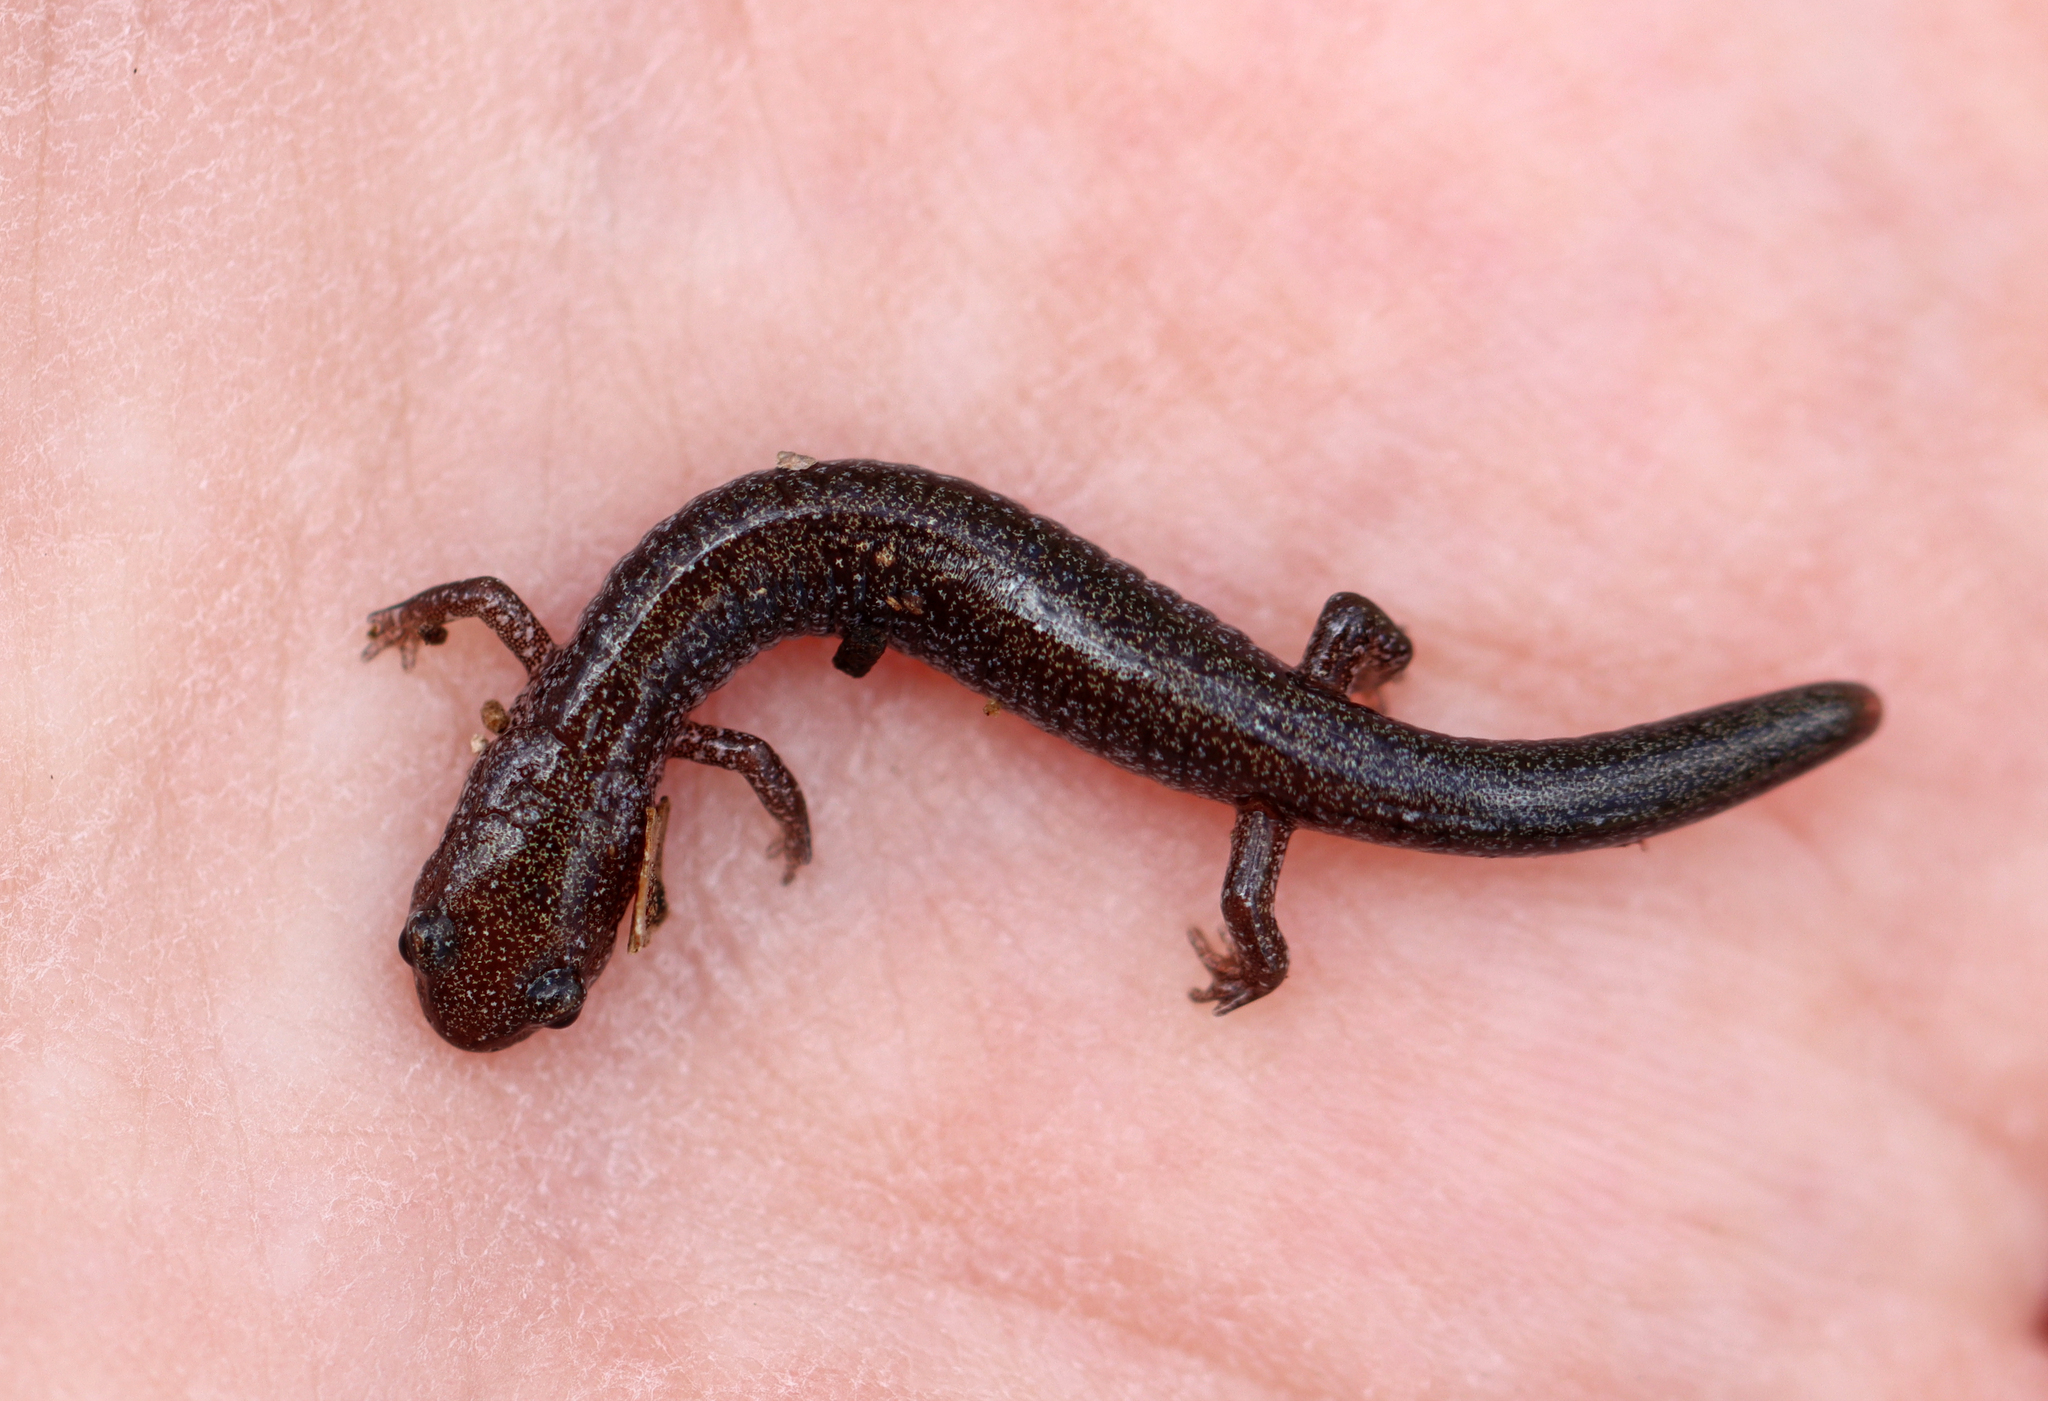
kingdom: Animalia
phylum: Chordata
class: Amphibia
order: Caudata
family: Plethodontidae
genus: Plethodon
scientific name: Plethodon cinereus
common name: Redback salamander
